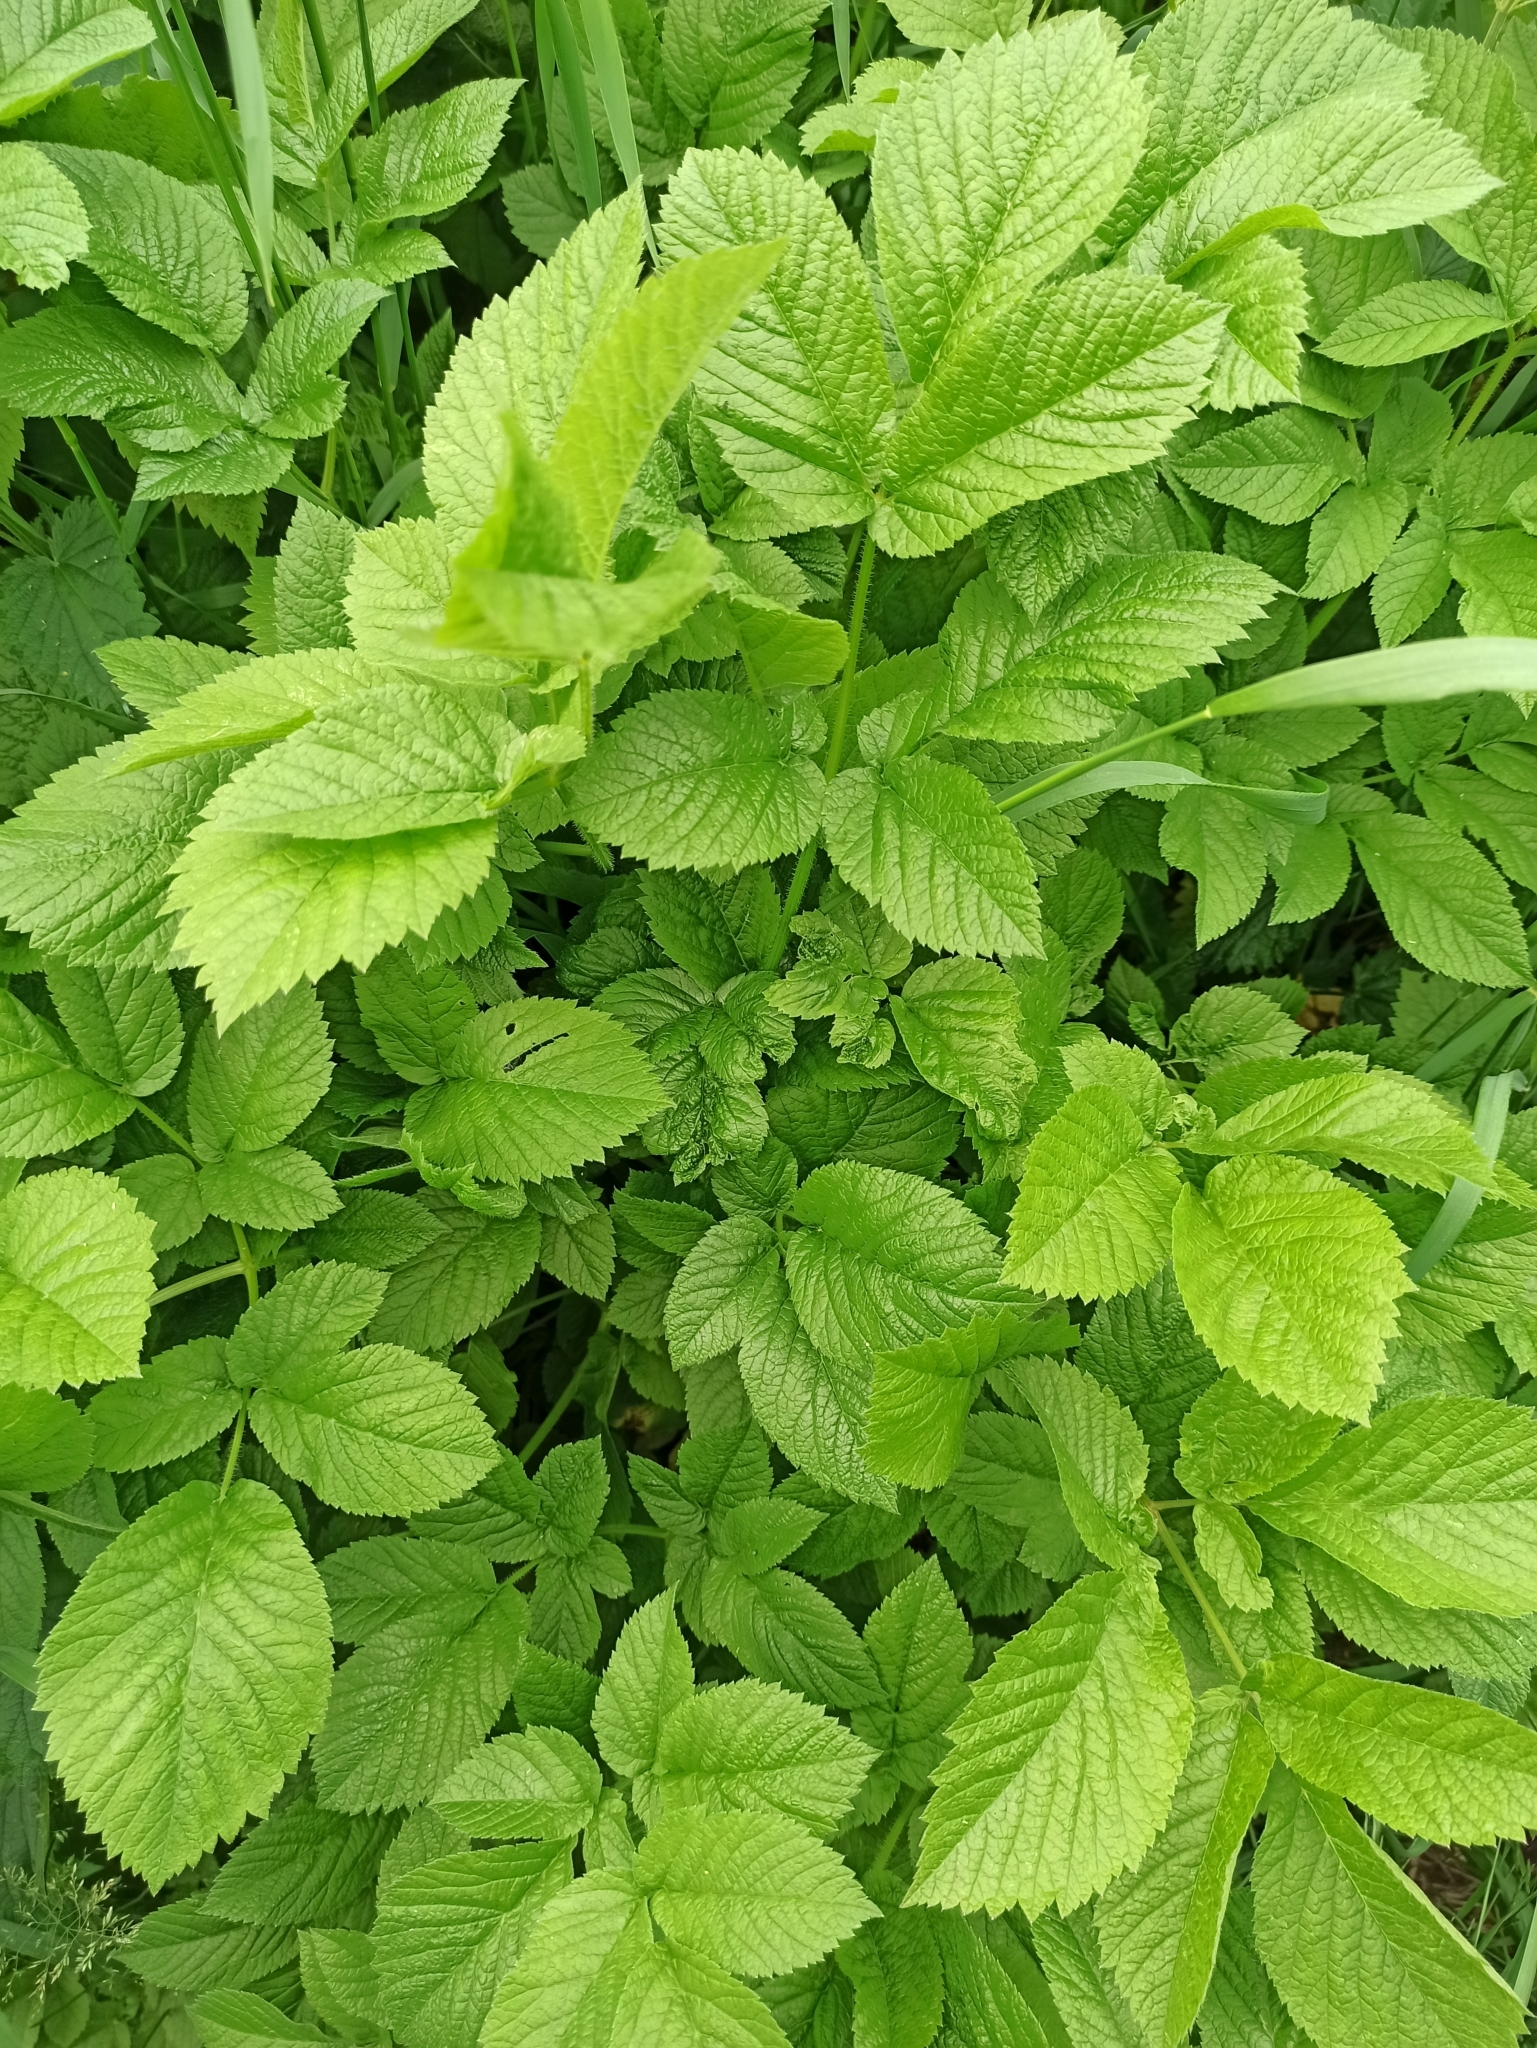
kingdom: Plantae
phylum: Tracheophyta
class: Magnoliopsida
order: Apiales
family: Apiaceae
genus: Chaerophyllum
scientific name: Chaerophyllum aromaticum
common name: Broadleaf chervil
